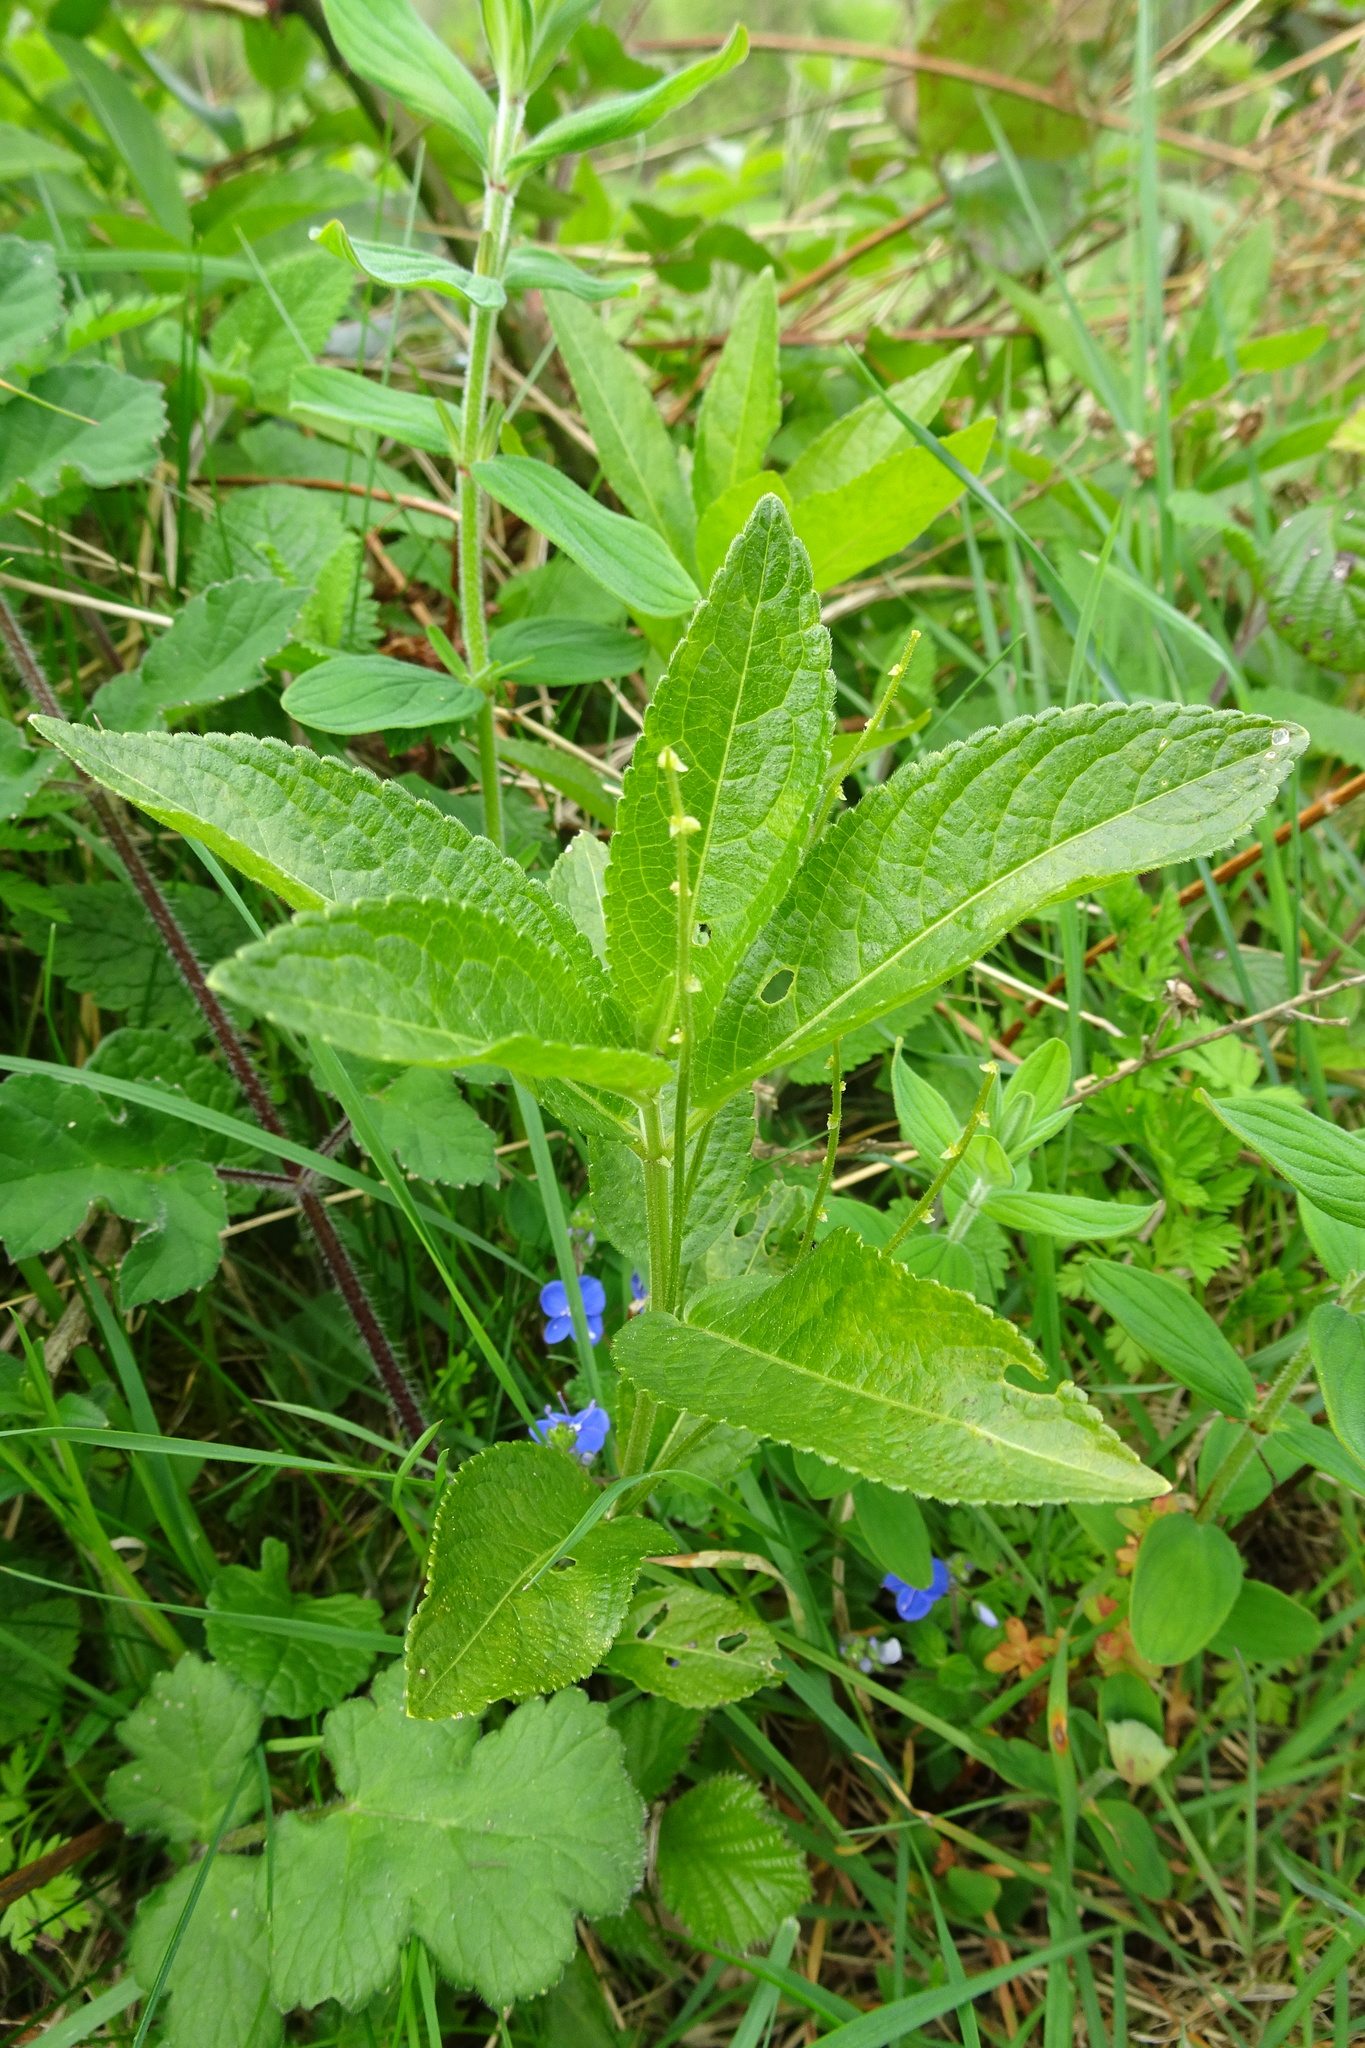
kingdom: Plantae
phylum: Tracheophyta
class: Magnoliopsida
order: Malpighiales
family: Euphorbiaceae
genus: Mercurialis
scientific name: Mercurialis perennis
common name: Dog mercury
